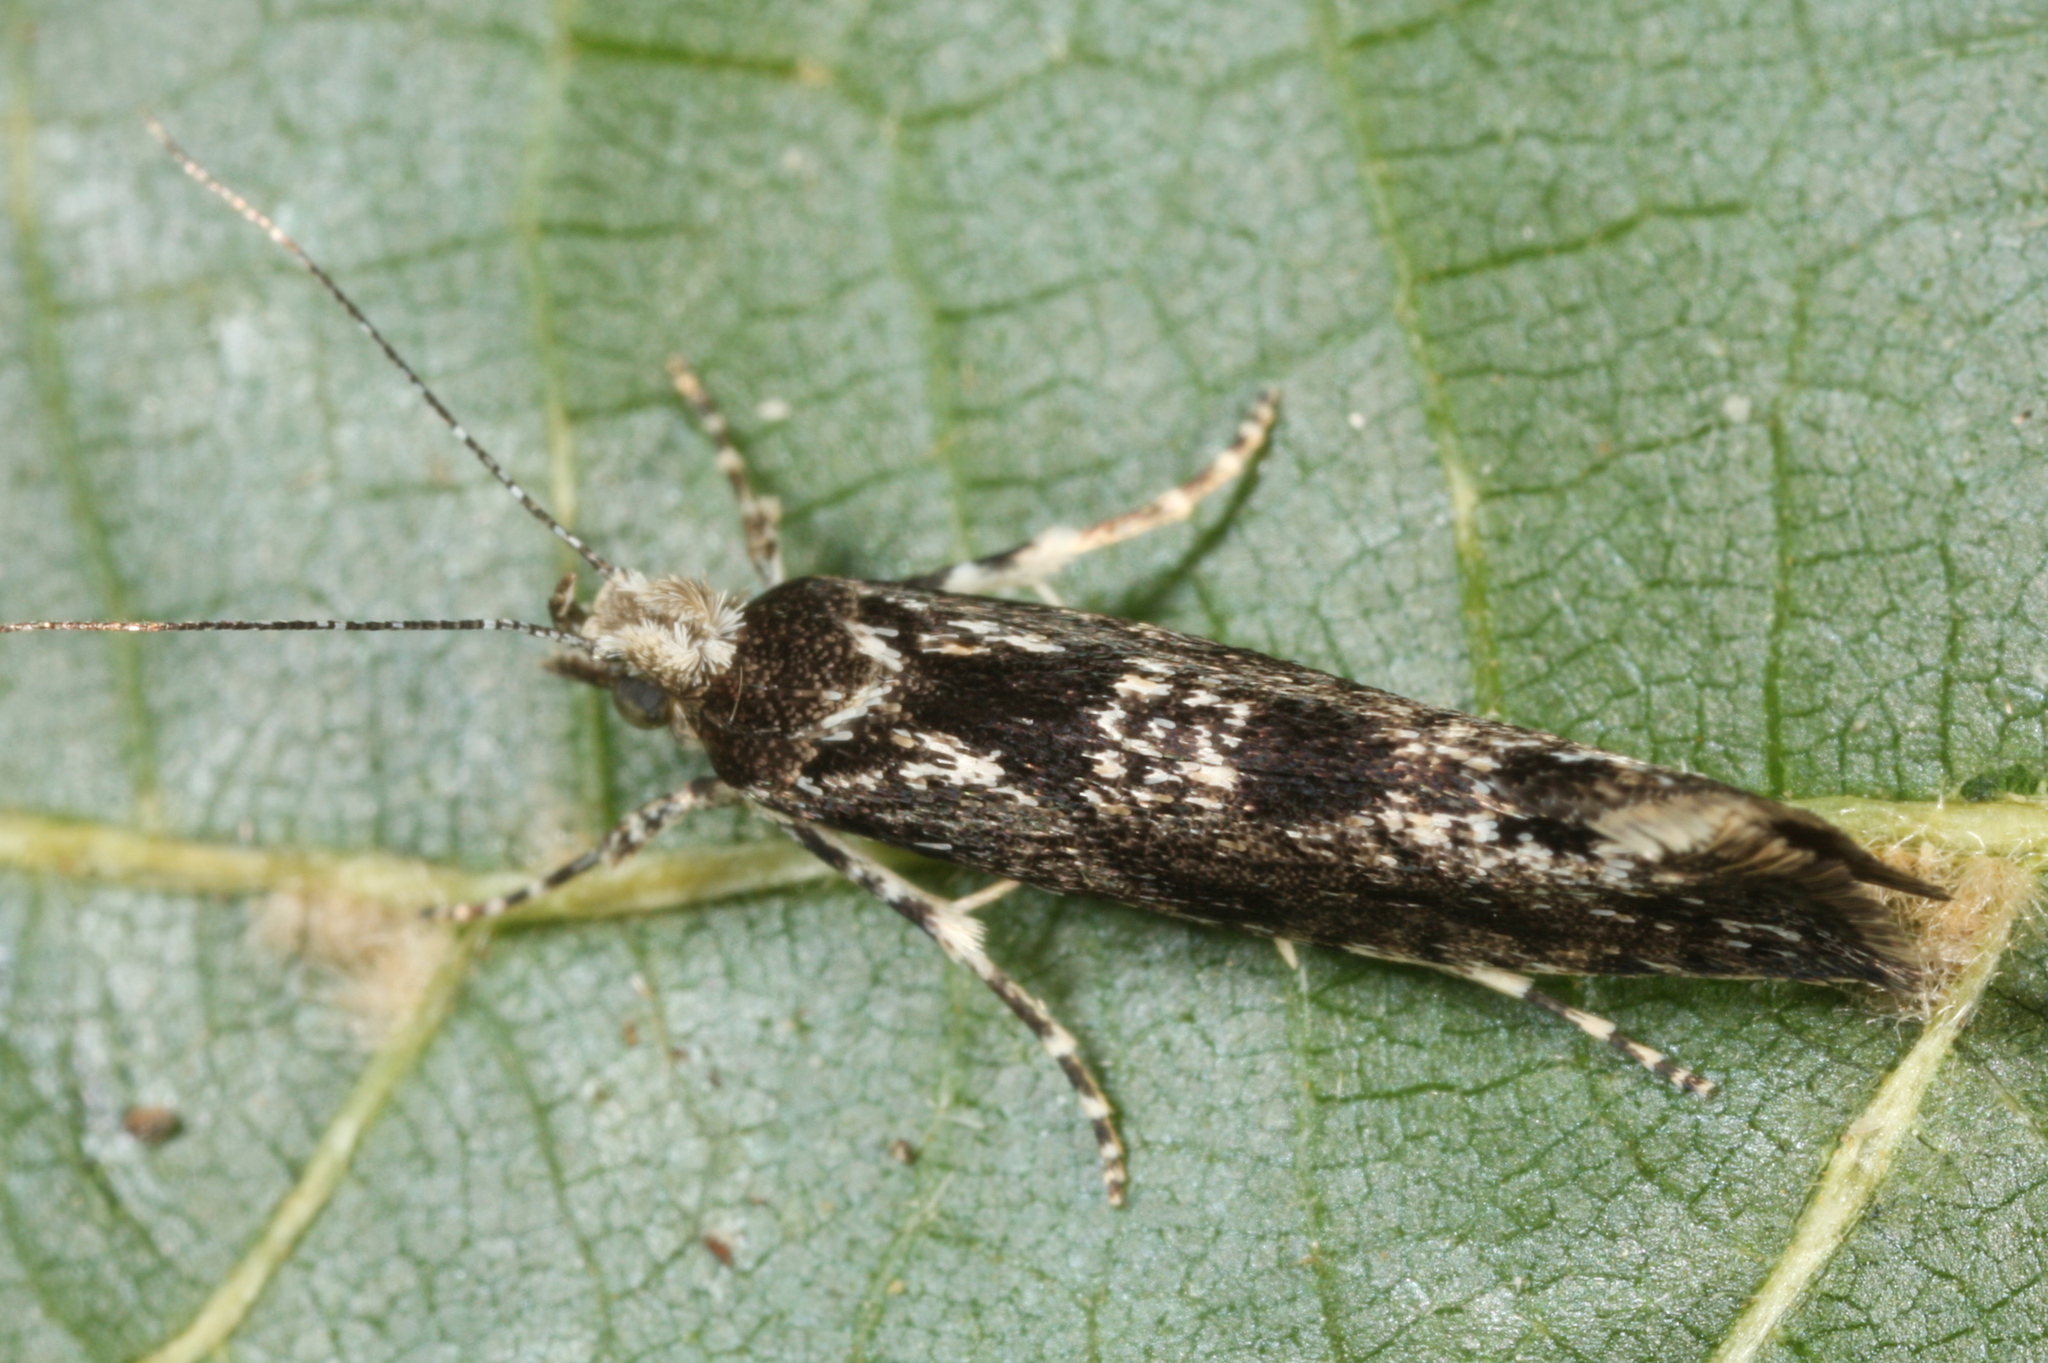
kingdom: Animalia
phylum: Arthropoda
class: Insecta
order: Lepidoptera
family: Ypsolophidae
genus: Ypsolopha
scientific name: Ypsolopha vittella
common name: Elm smudge
